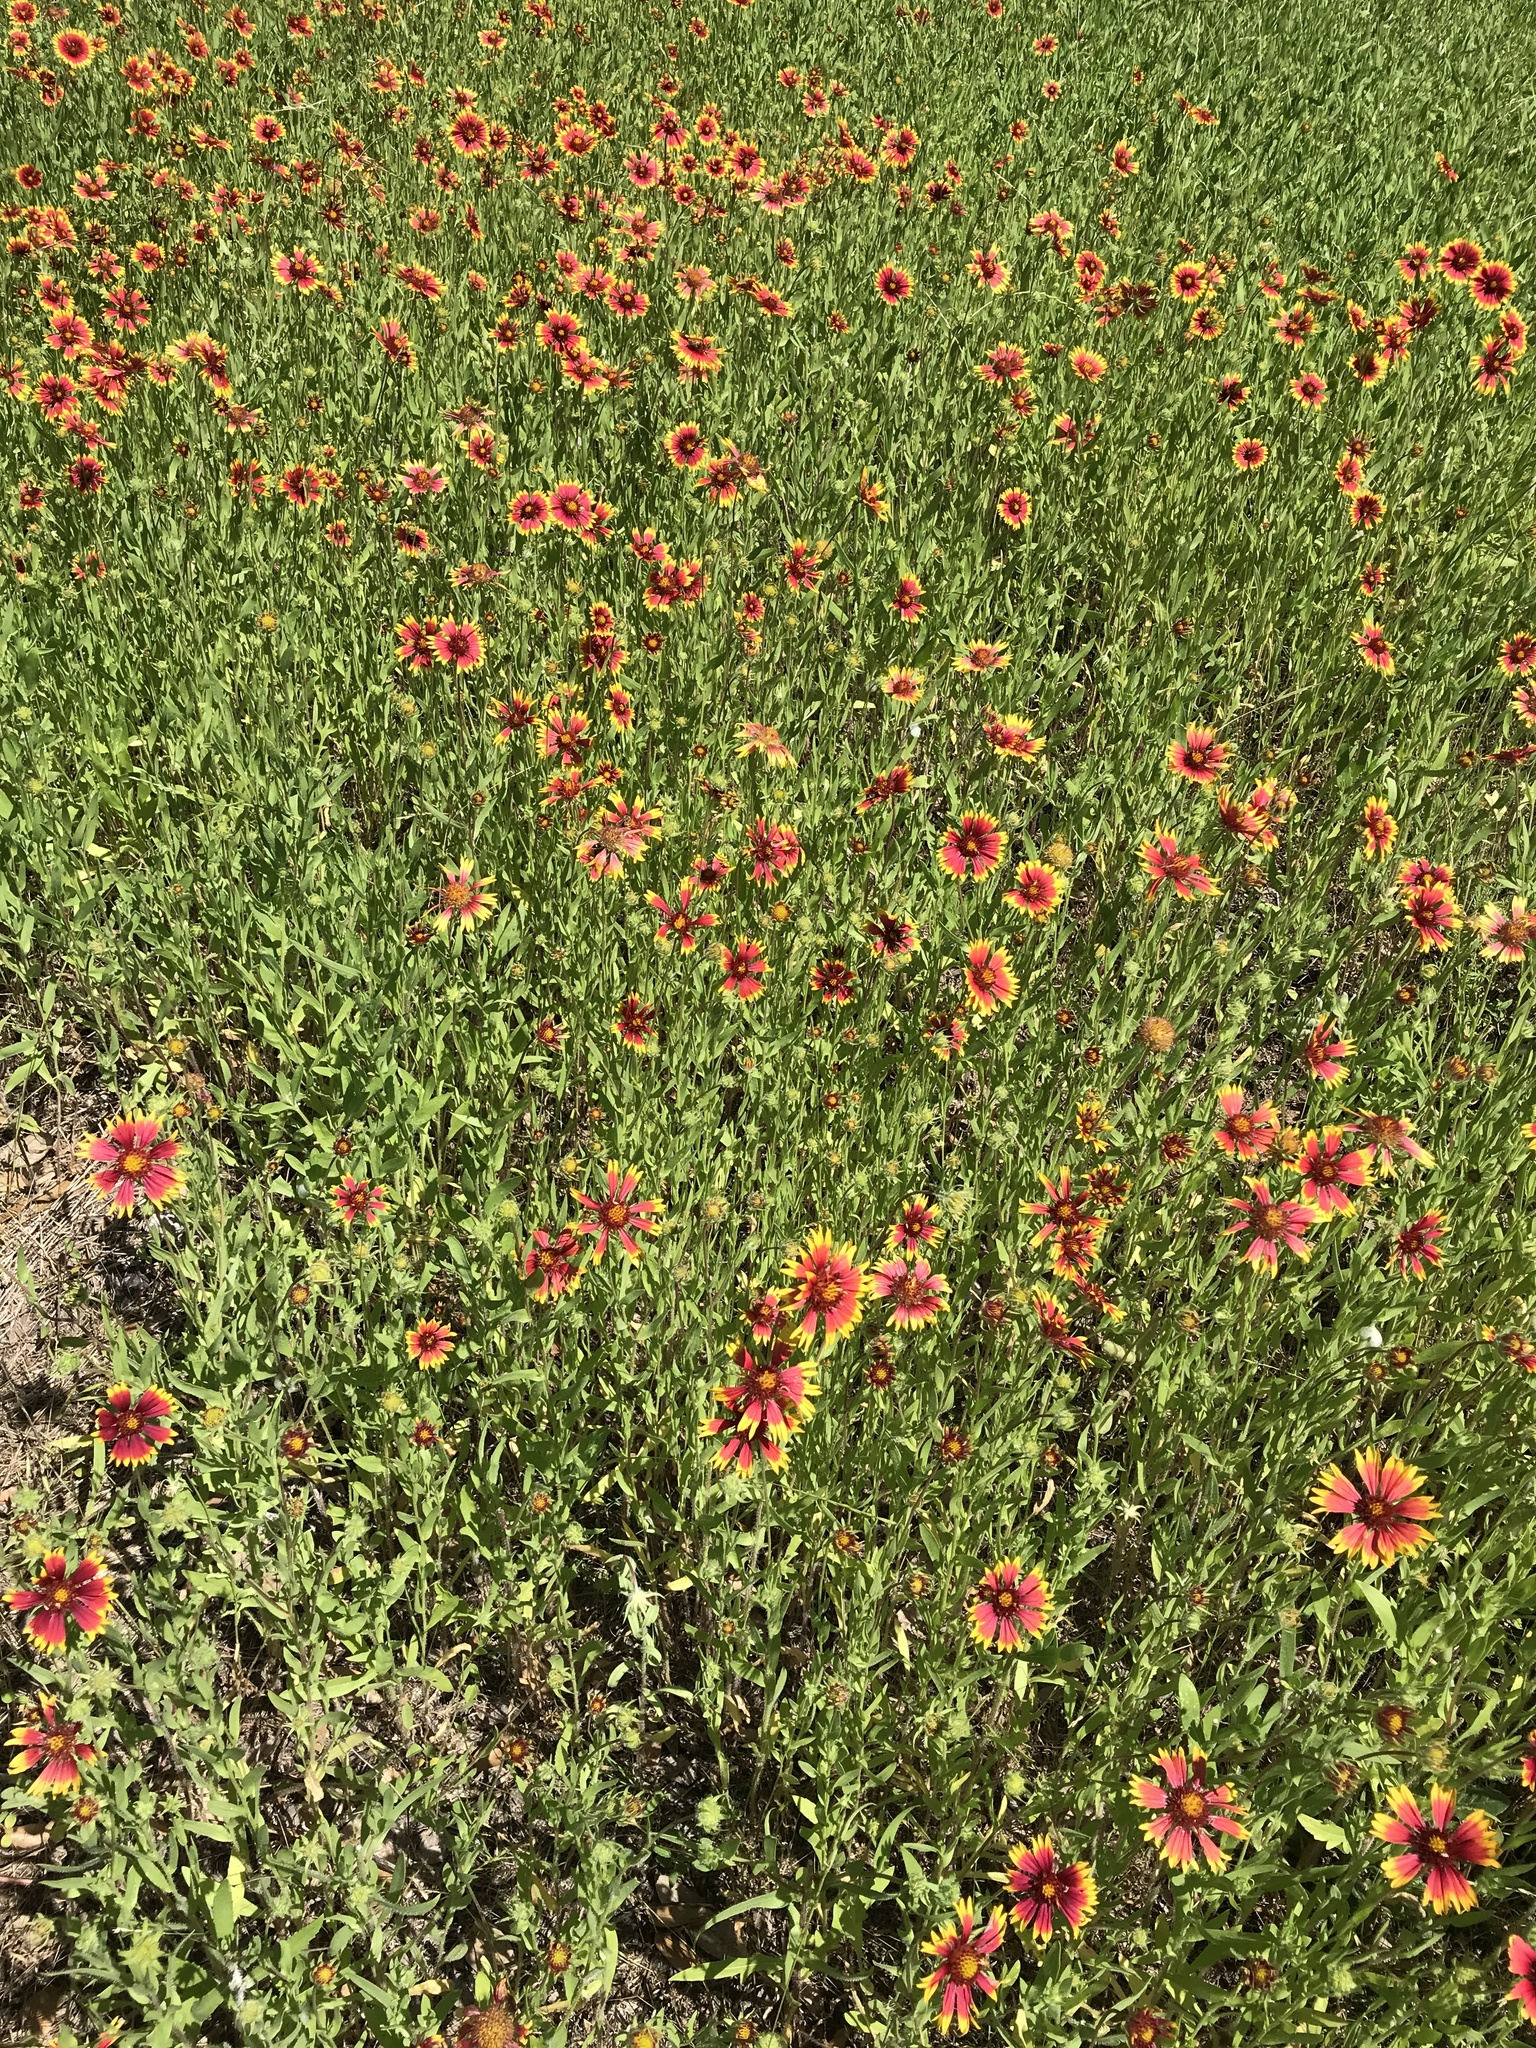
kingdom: Plantae
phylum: Tracheophyta
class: Magnoliopsida
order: Asterales
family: Asteraceae
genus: Gaillardia
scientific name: Gaillardia pulchella
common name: Firewheel
